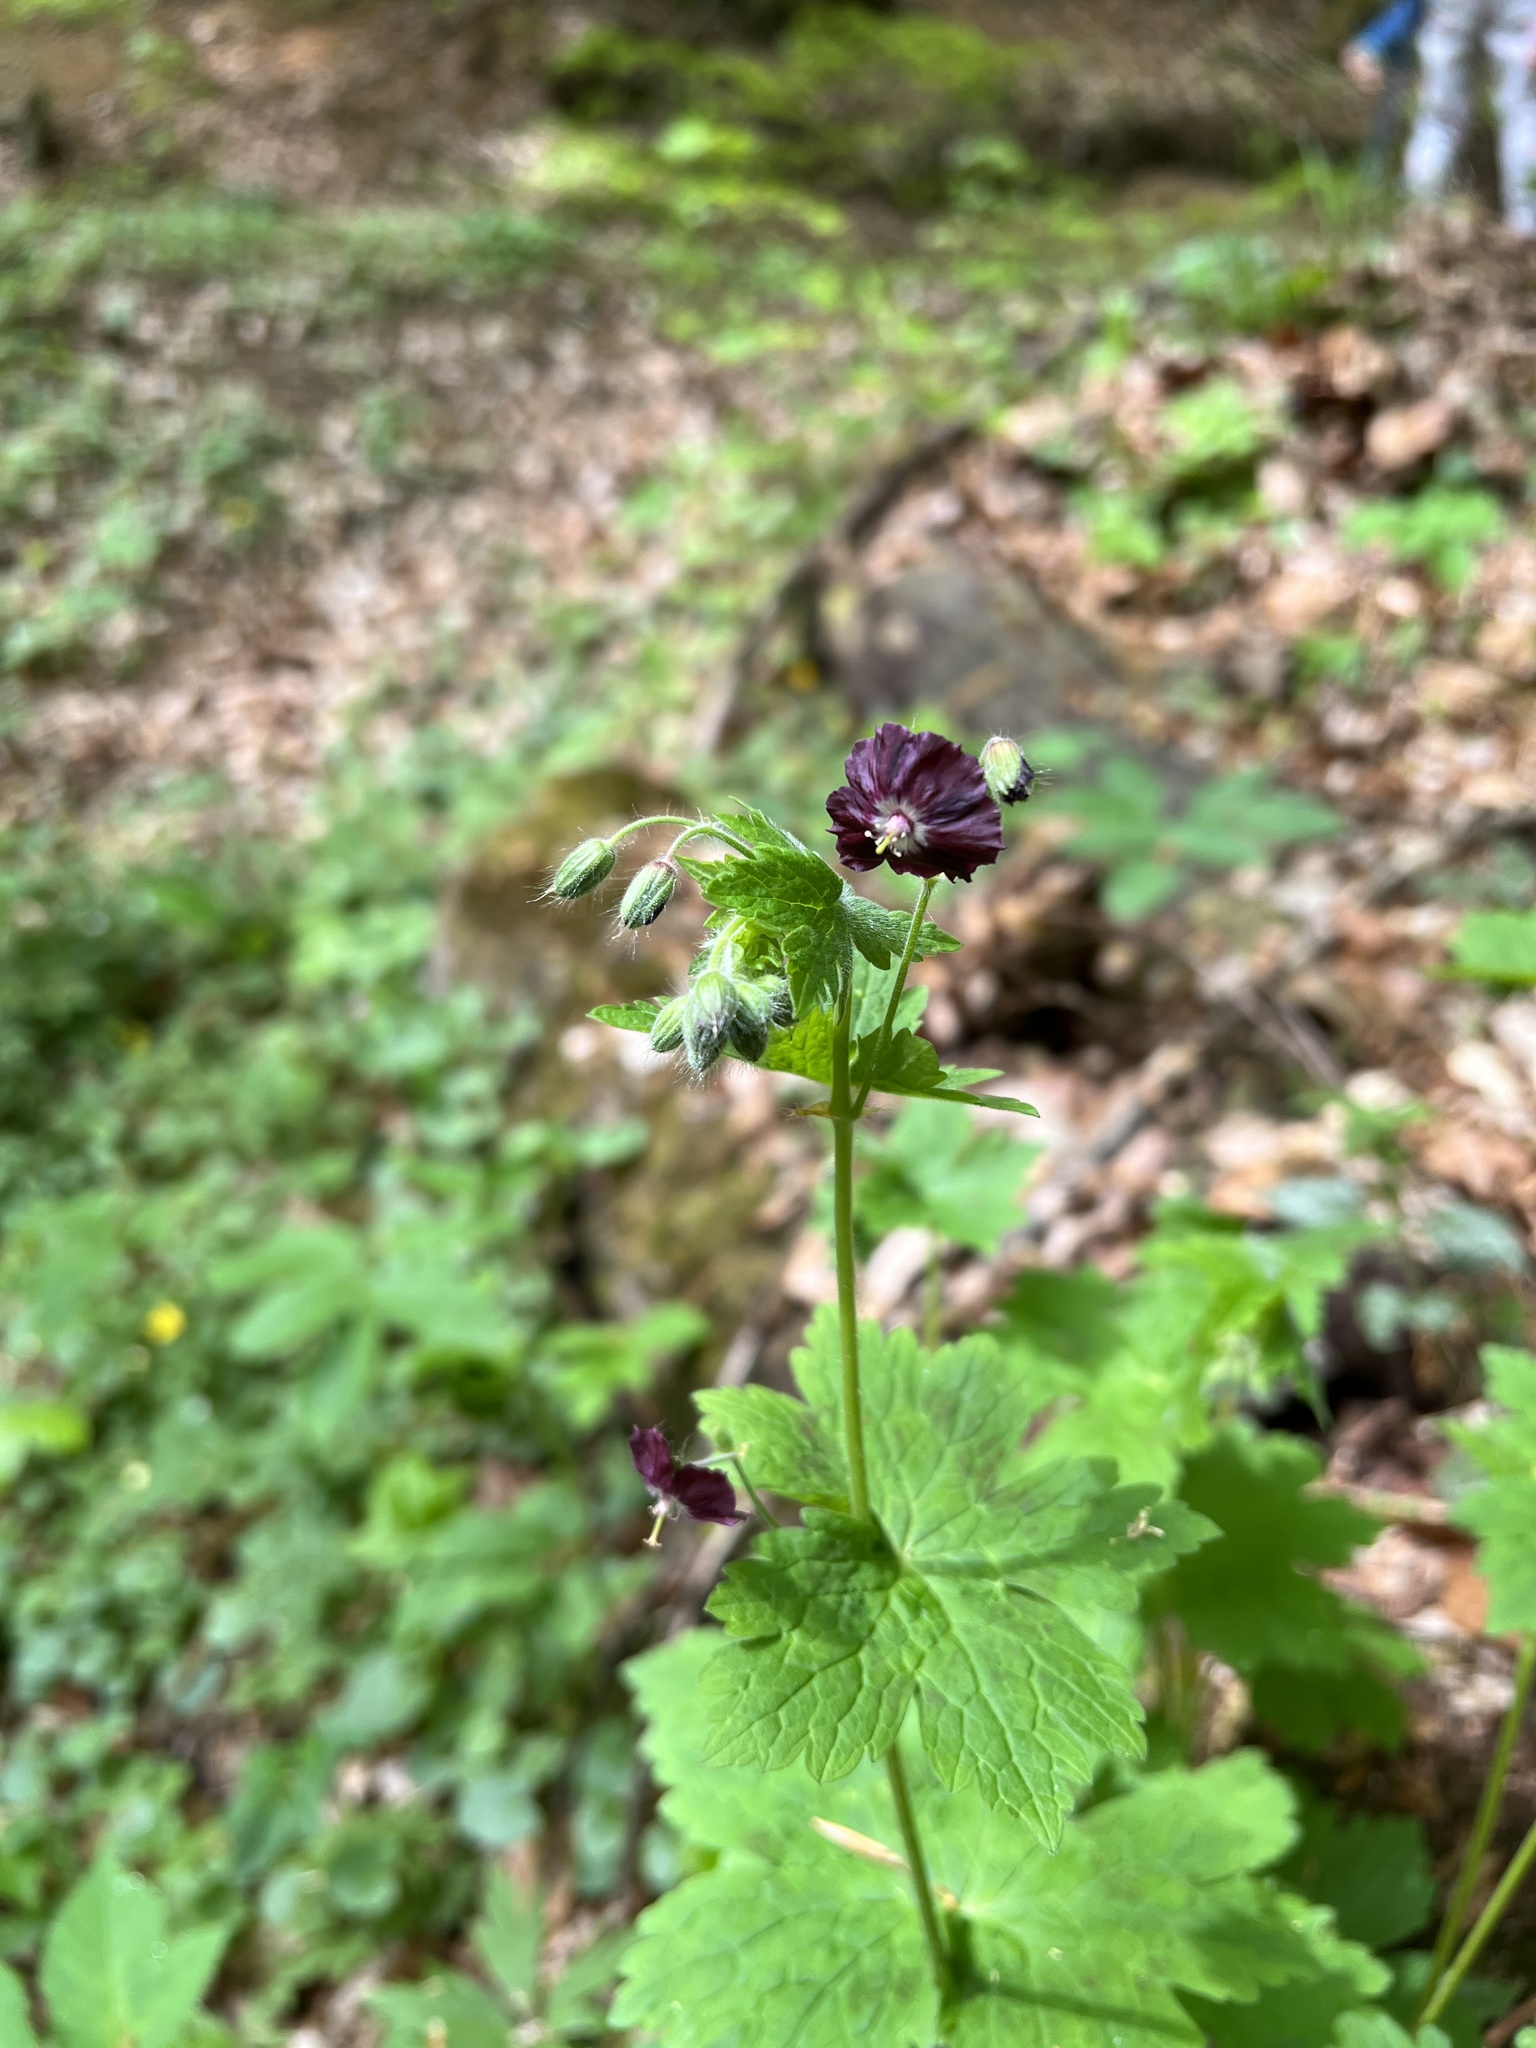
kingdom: Plantae
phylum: Tracheophyta
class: Magnoliopsida
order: Geraniales
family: Geraniaceae
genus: Geranium
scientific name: Geranium phaeum
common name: Dusky crane's-bill
